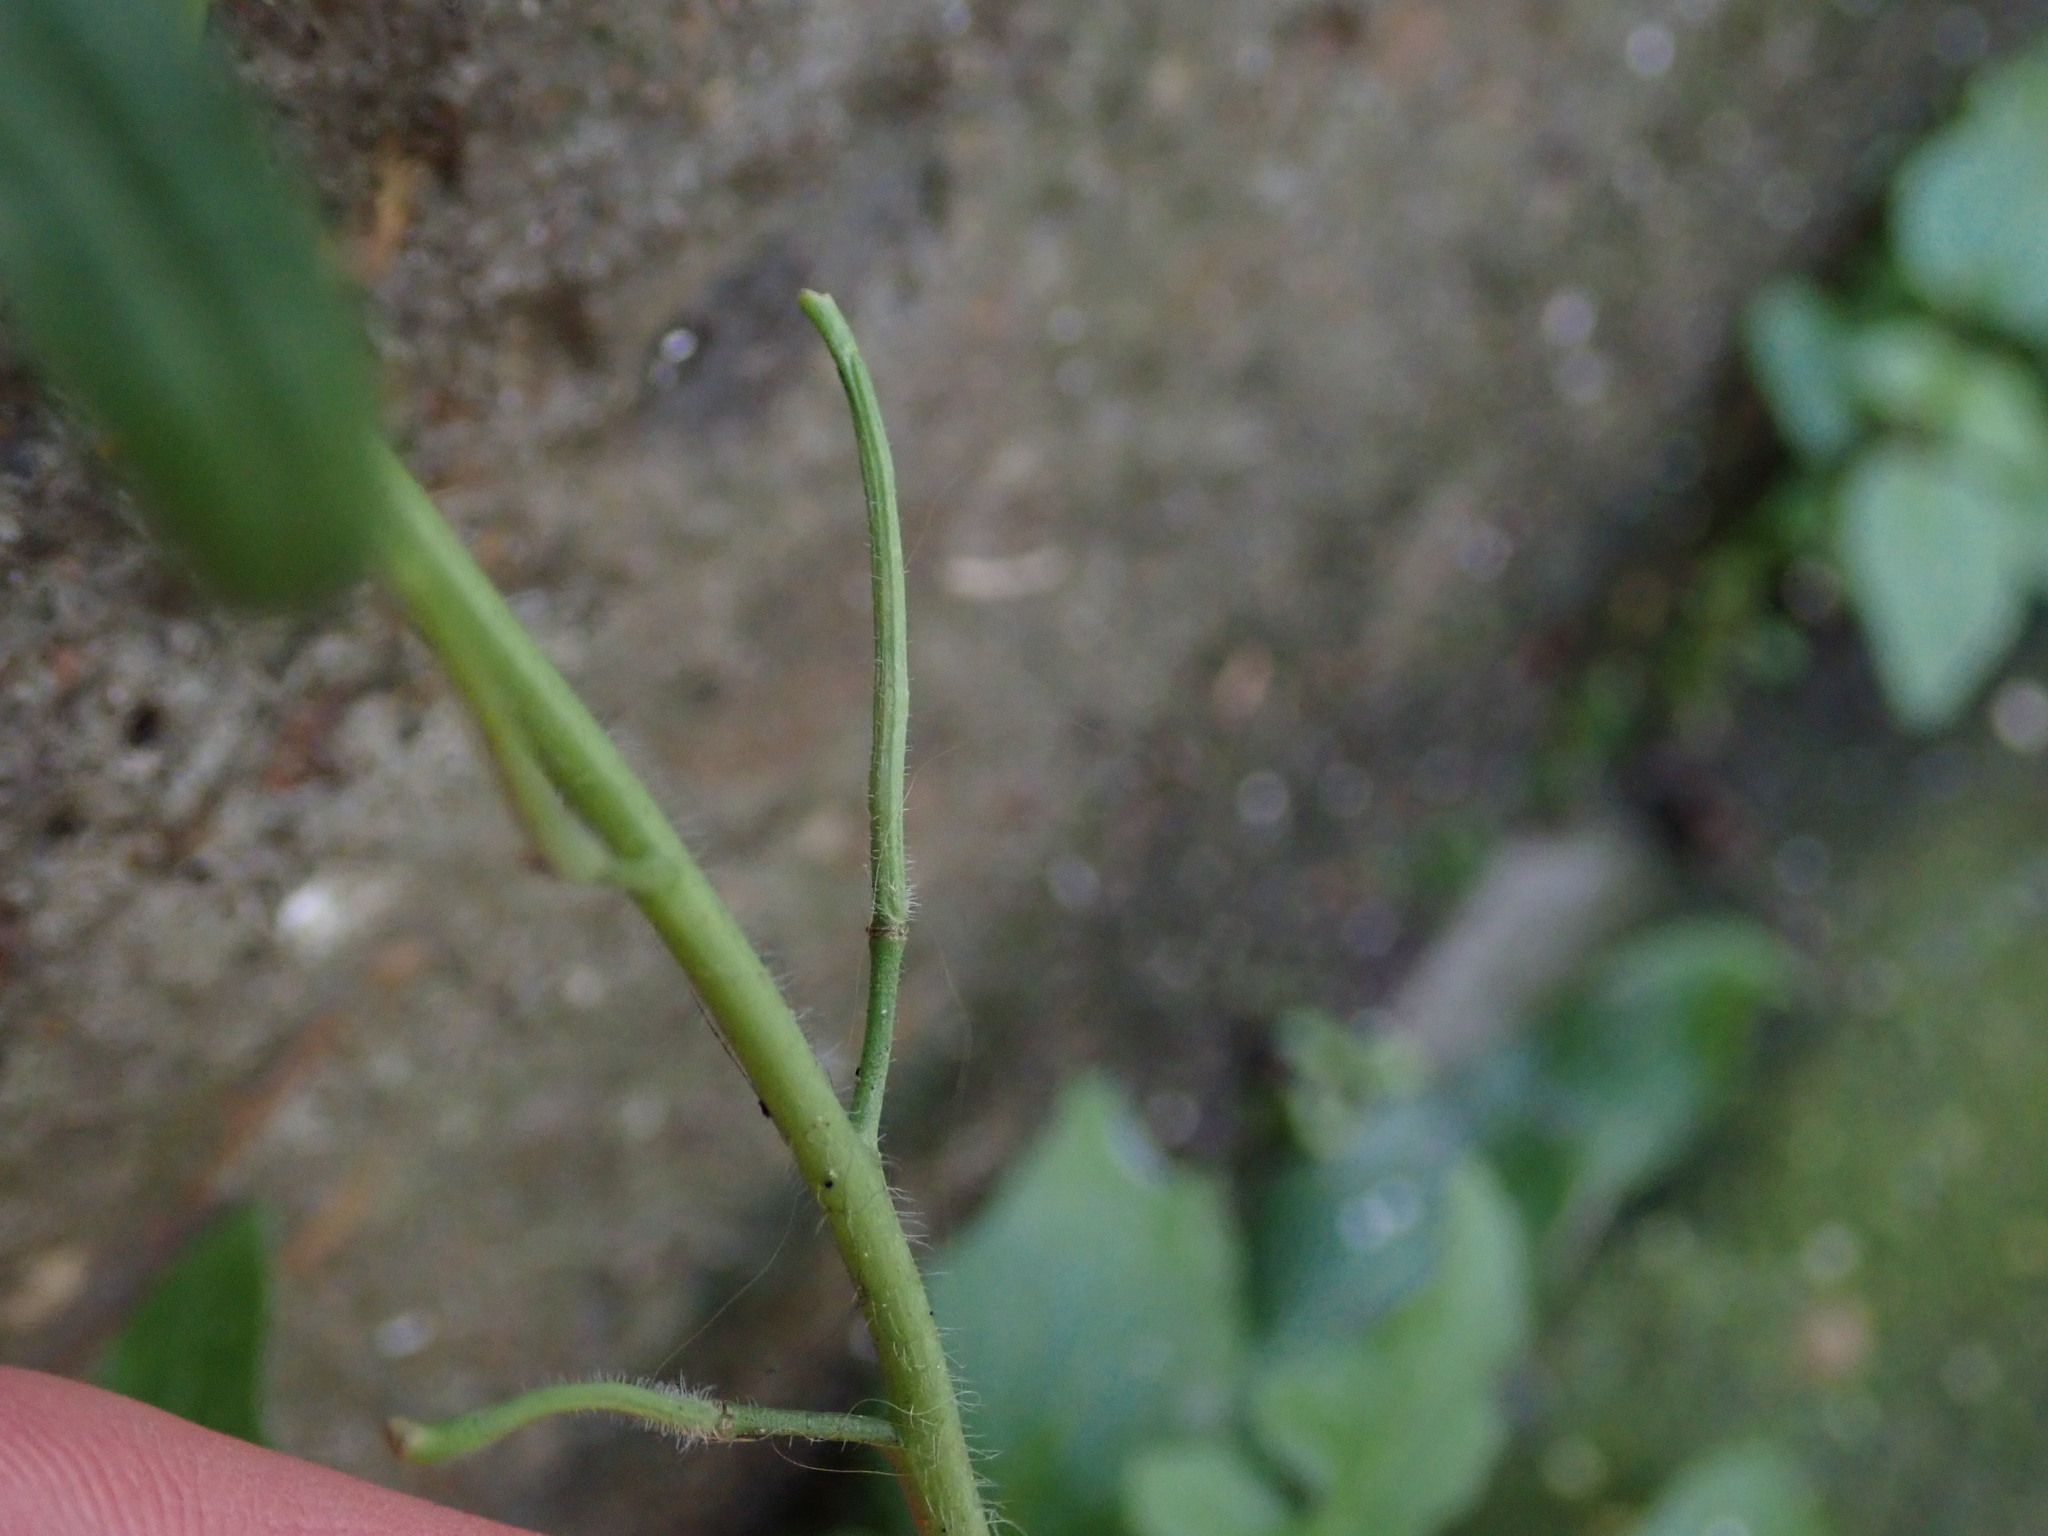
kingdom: Plantae
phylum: Tracheophyta
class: Magnoliopsida
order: Brassicales
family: Brassicaceae
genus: Sisymbrium
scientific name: Sisymbrium orientale
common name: Eastern rocket
